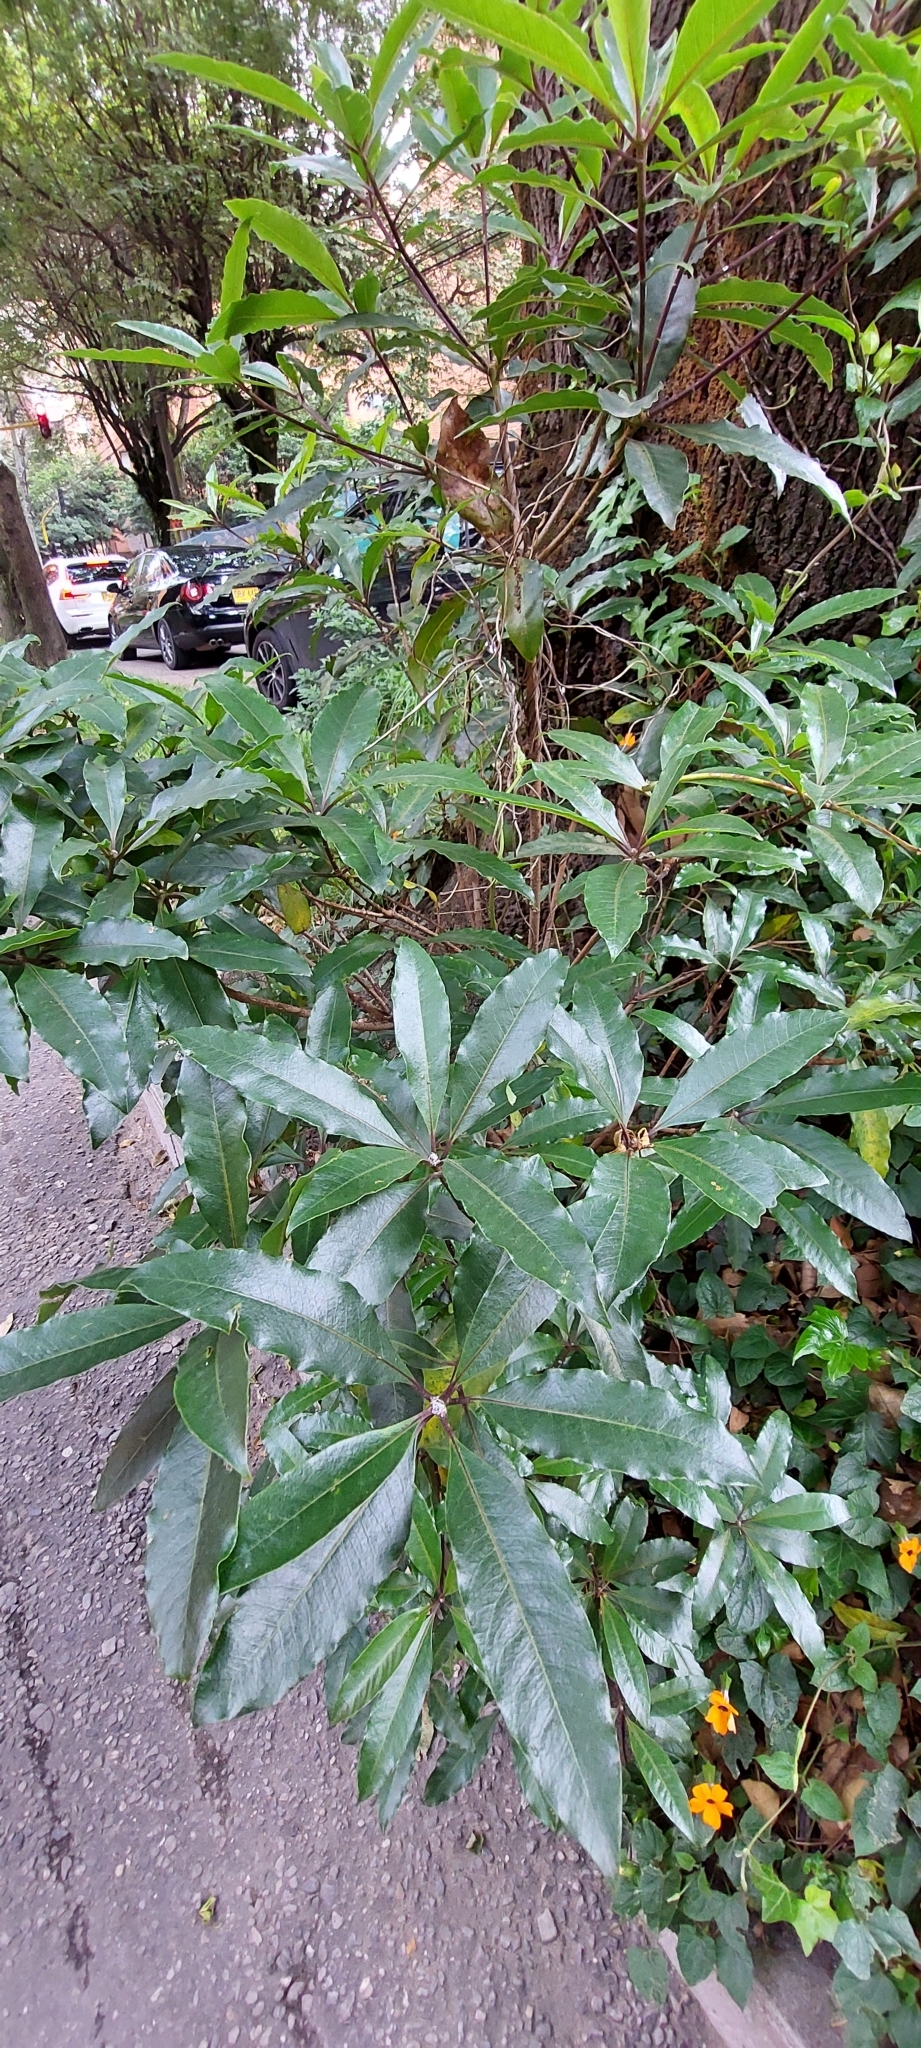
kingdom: Plantae
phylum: Tracheophyta
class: Magnoliopsida
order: Apiales
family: Pittosporaceae
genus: Pittosporum
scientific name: Pittosporum undulatum
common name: Australian cheesewood
